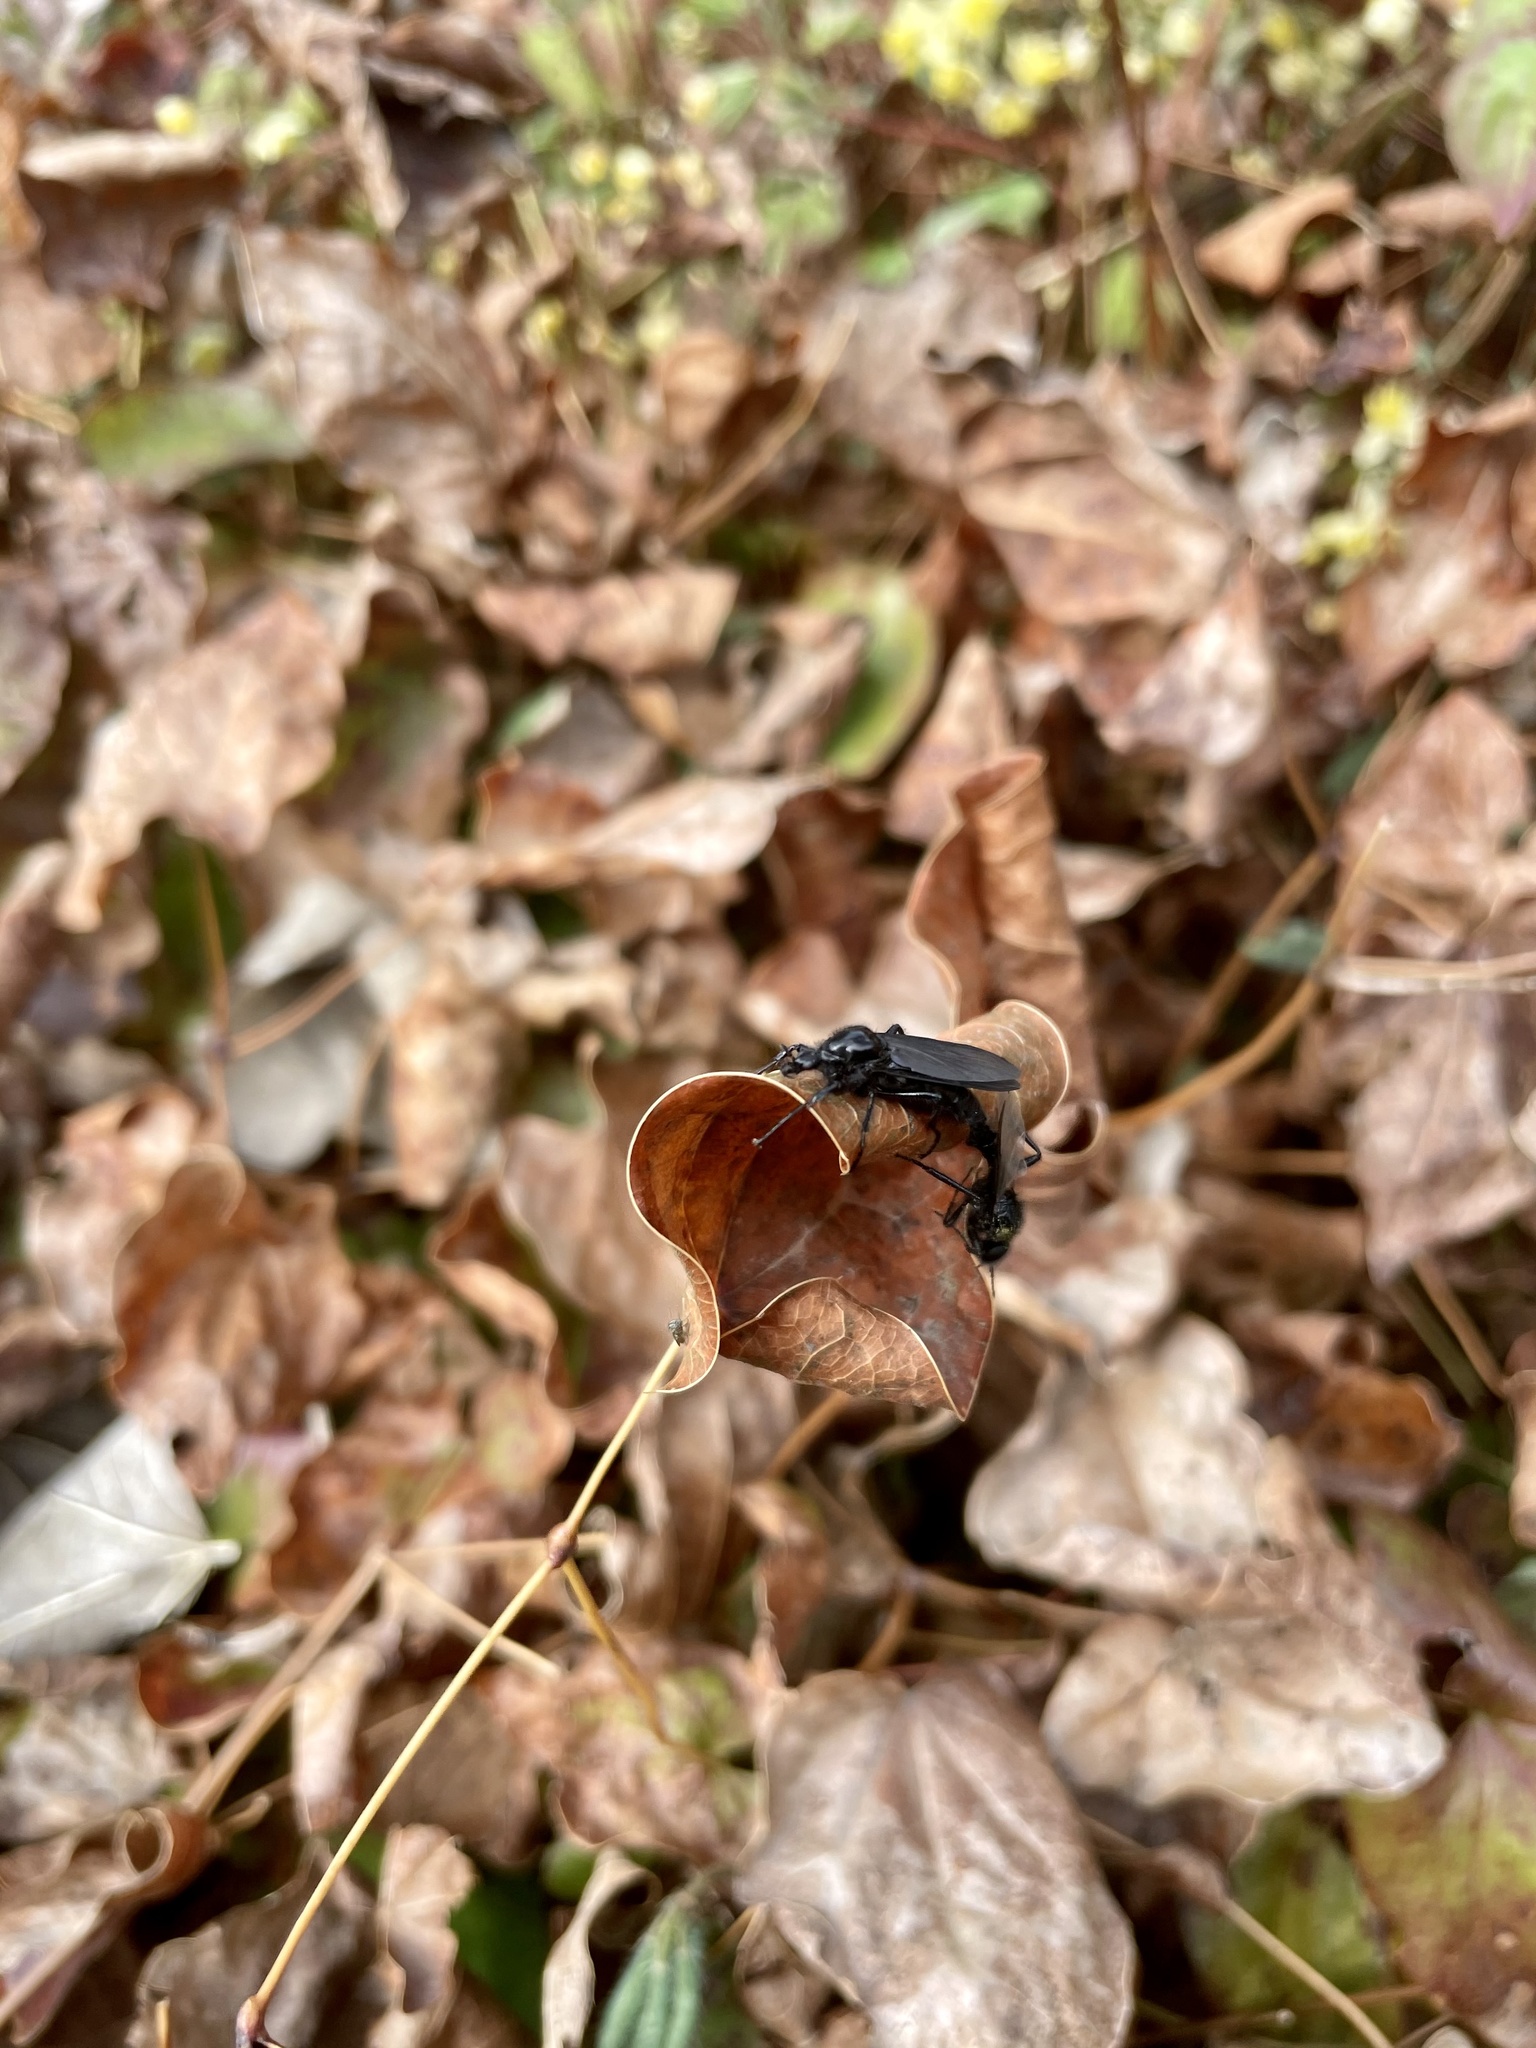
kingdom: Animalia
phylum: Arthropoda
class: Insecta
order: Diptera
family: Bibionidae
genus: Bibio
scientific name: Bibio marci
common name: St marks fly
